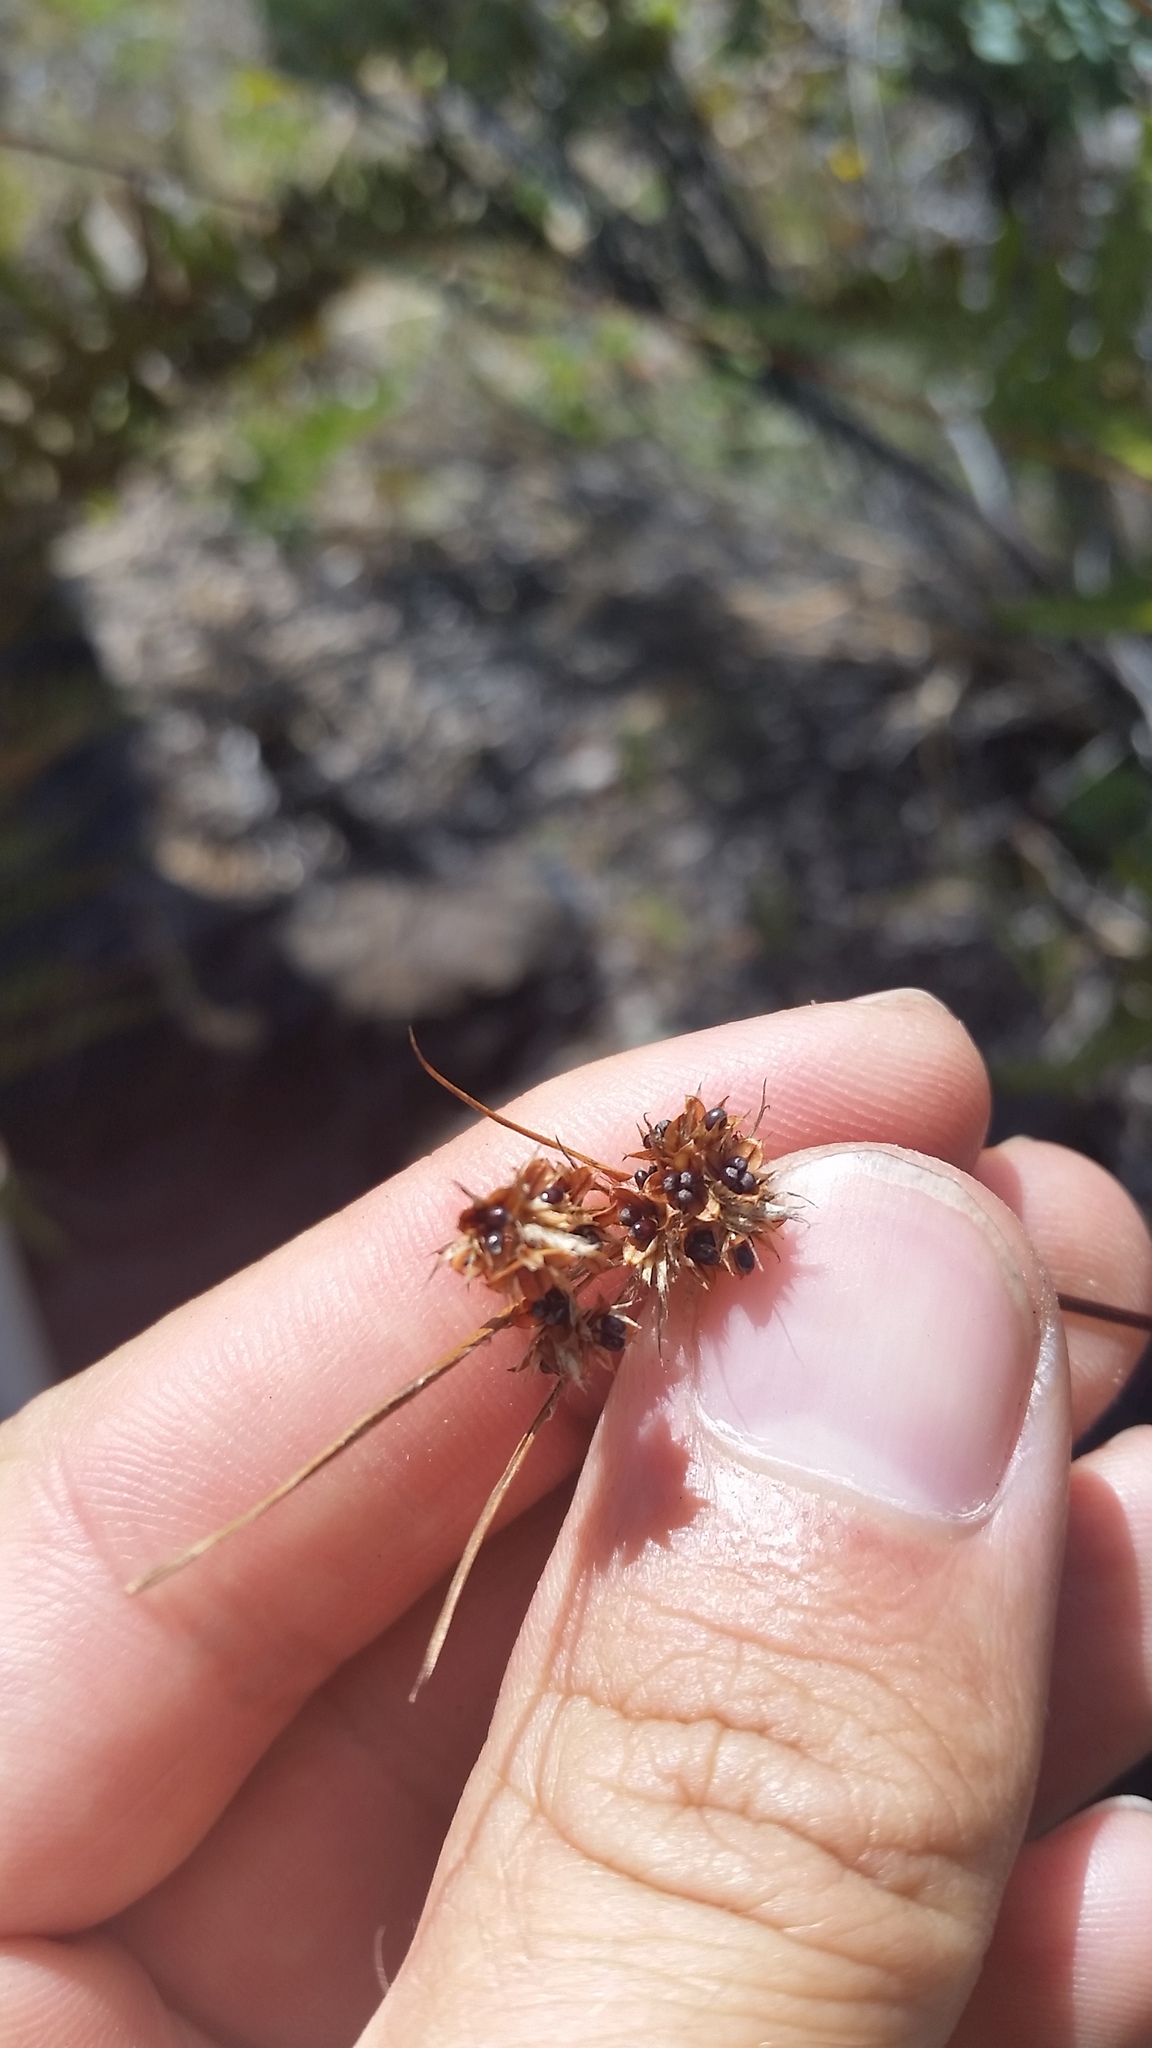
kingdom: Plantae
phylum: Tracheophyta
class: Liliopsida
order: Poales
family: Juncaceae
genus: Luzula
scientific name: Luzula hawaiiensis
